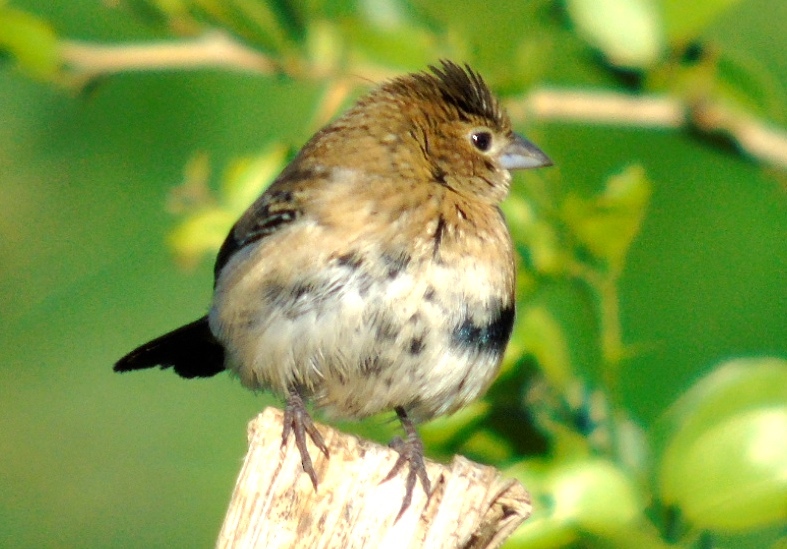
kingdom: Animalia
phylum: Chordata
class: Aves
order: Passeriformes
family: Thraupidae
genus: Volatinia
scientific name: Volatinia jacarina
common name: Blue-black grassquit
